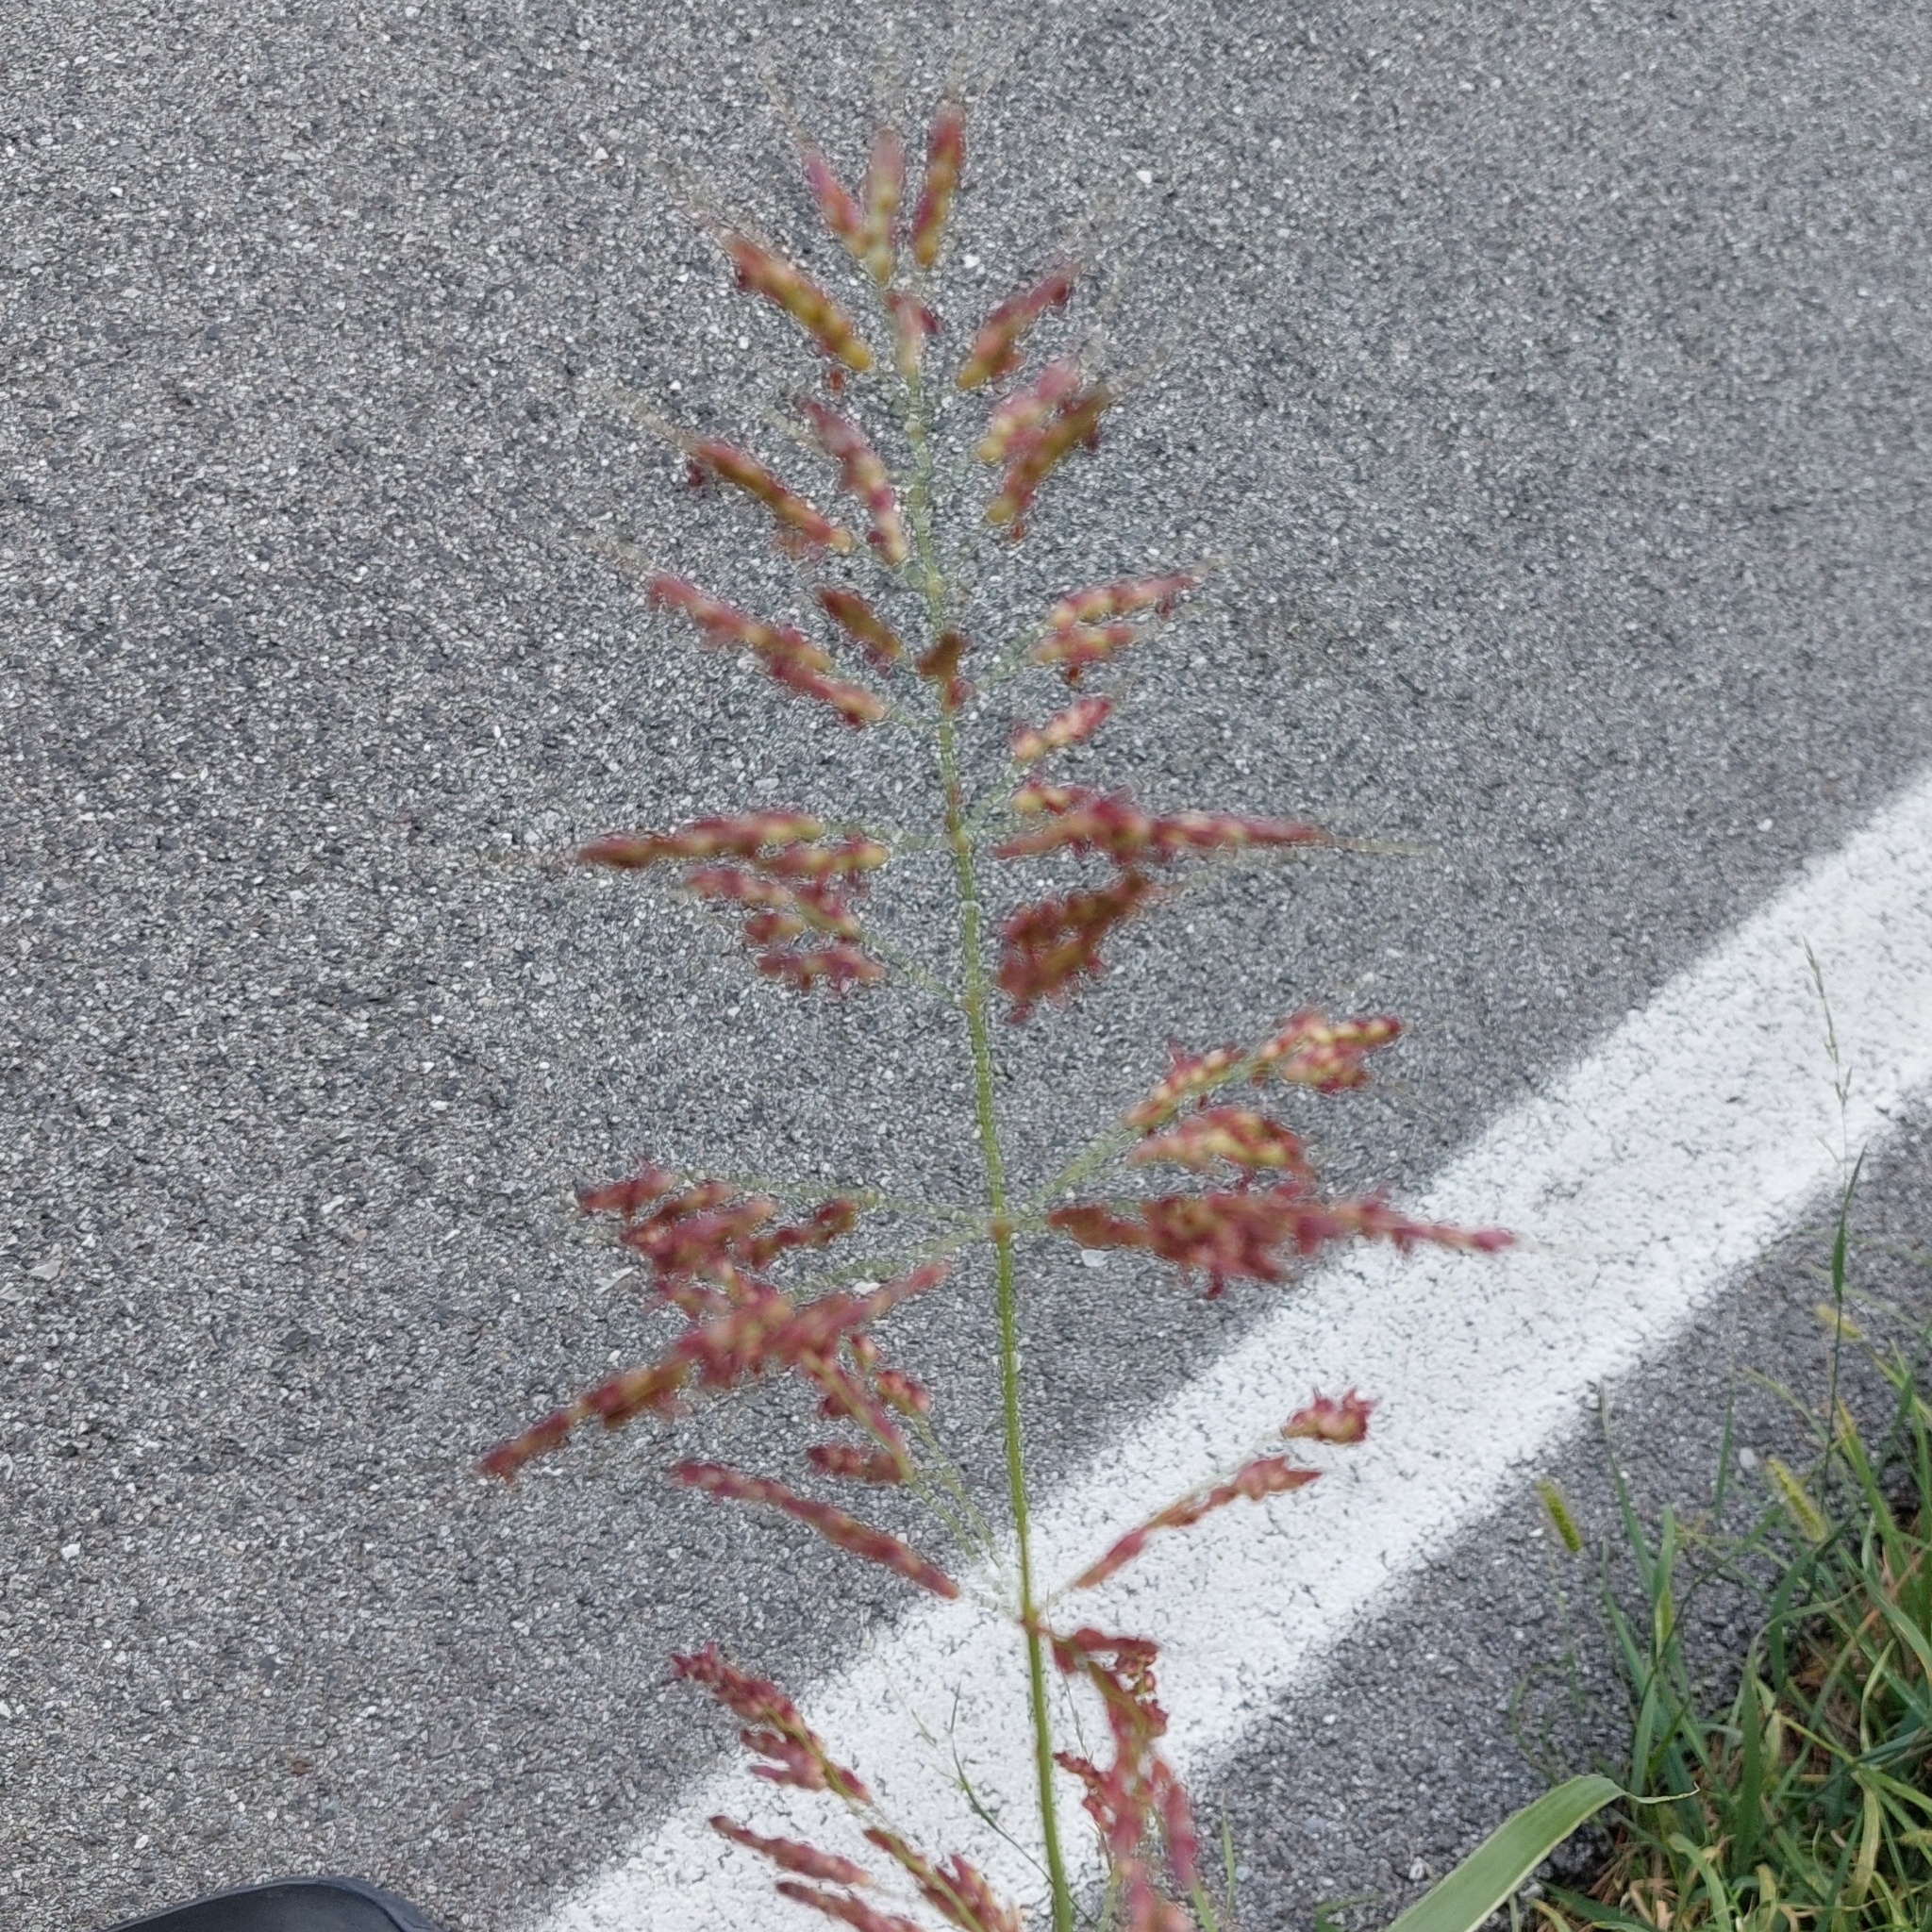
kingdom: Plantae
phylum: Tracheophyta
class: Liliopsida
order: Poales
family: Poaceae
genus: Sorghum
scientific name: Sorghum halepense
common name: Johnson-grass
